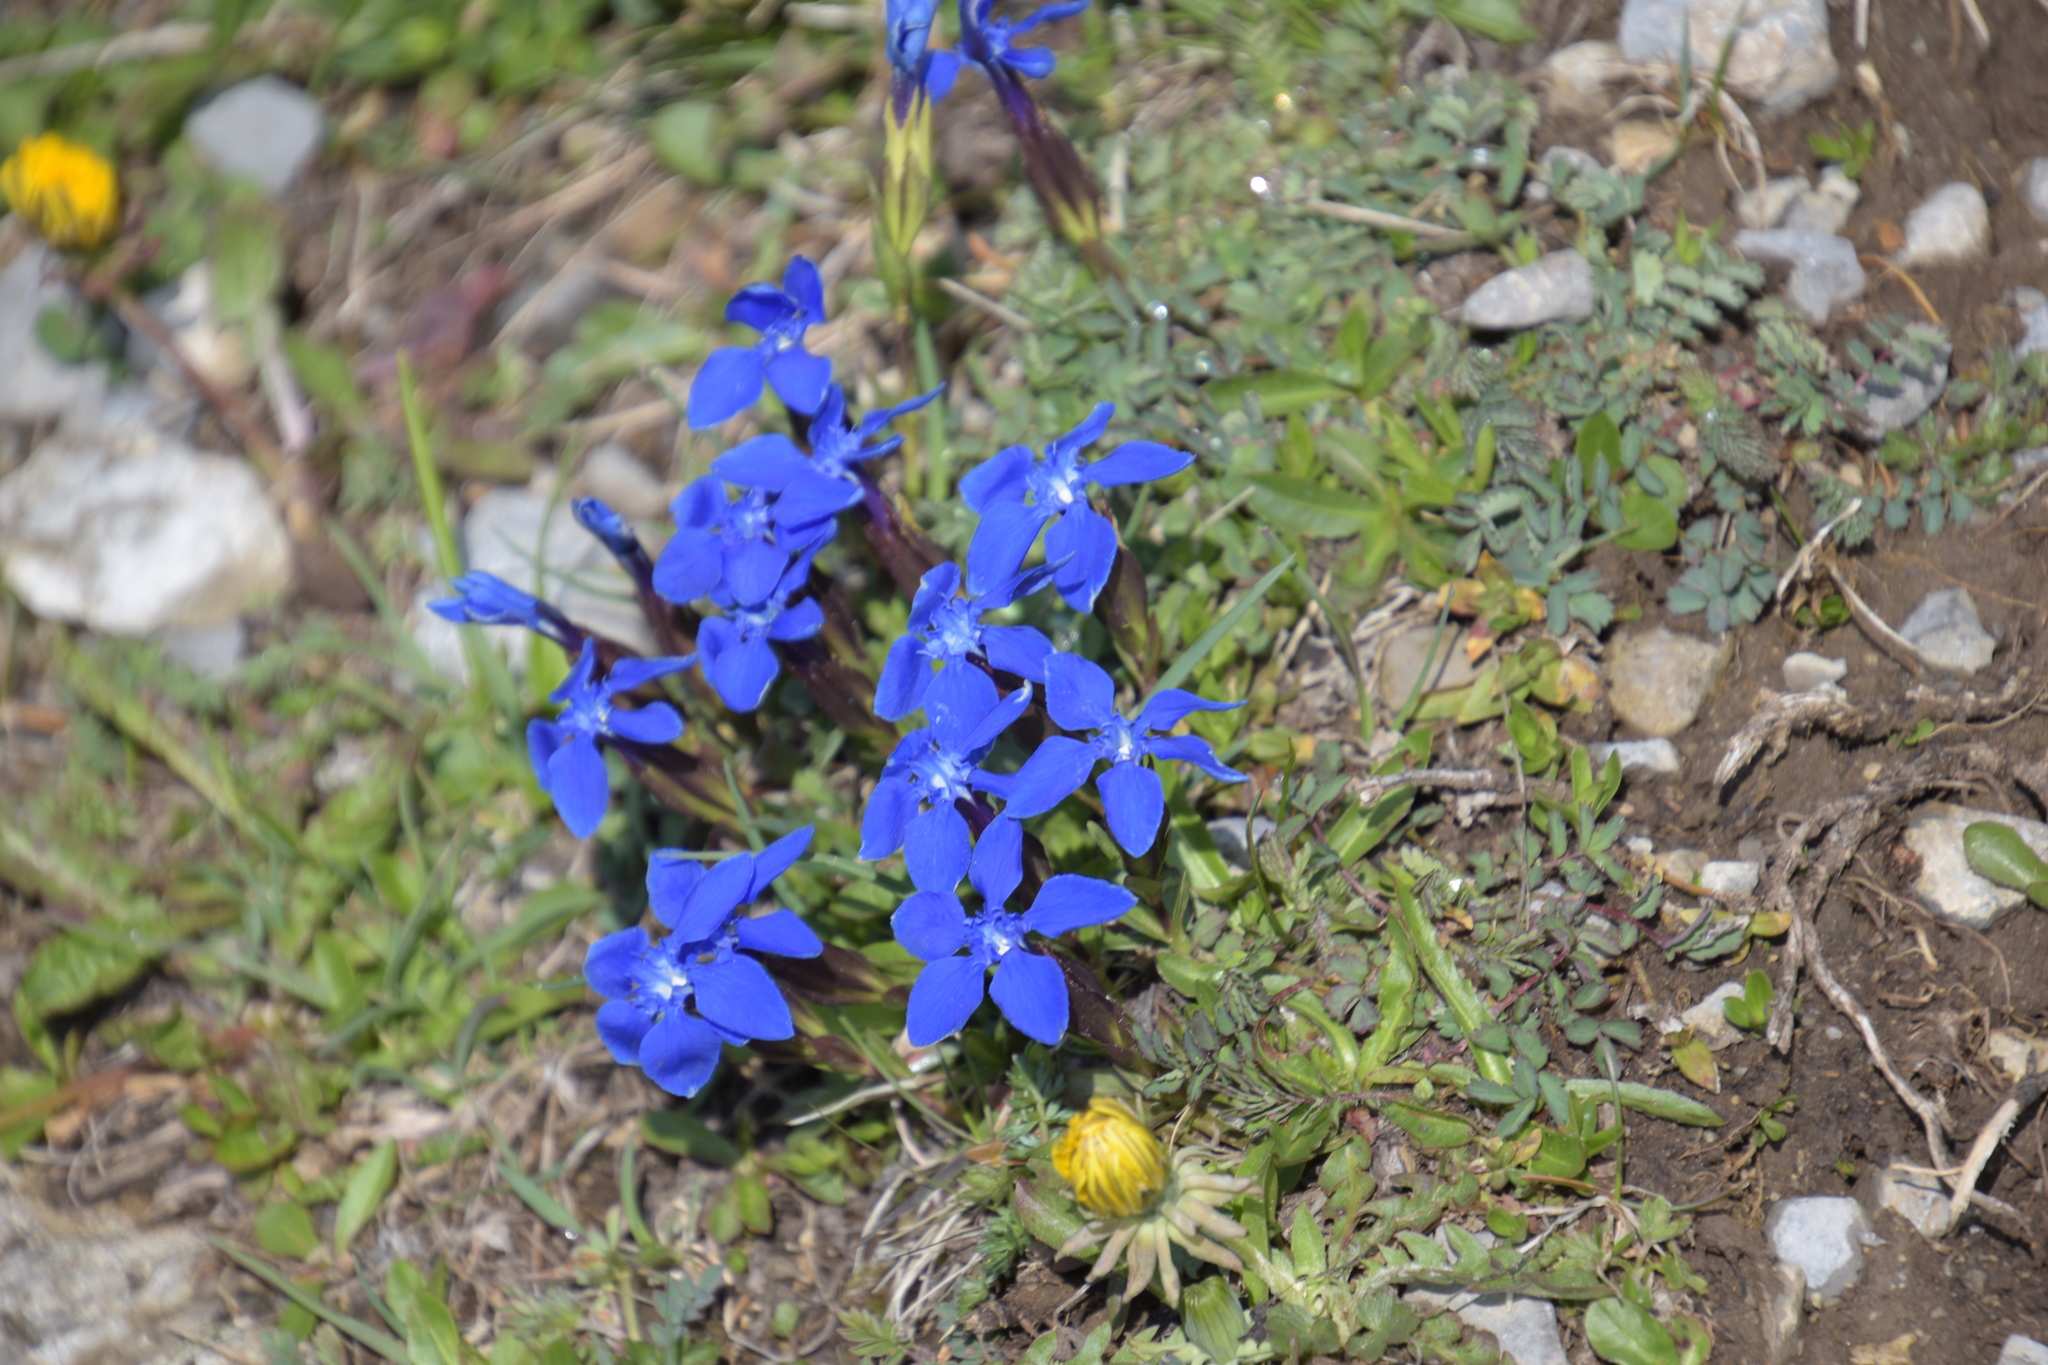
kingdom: Plantae
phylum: Tracheophyta
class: Magnoliopsida
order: Gentianales
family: Gentianaceae
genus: Gentiana
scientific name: Gentiana verna
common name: Spring gentian
